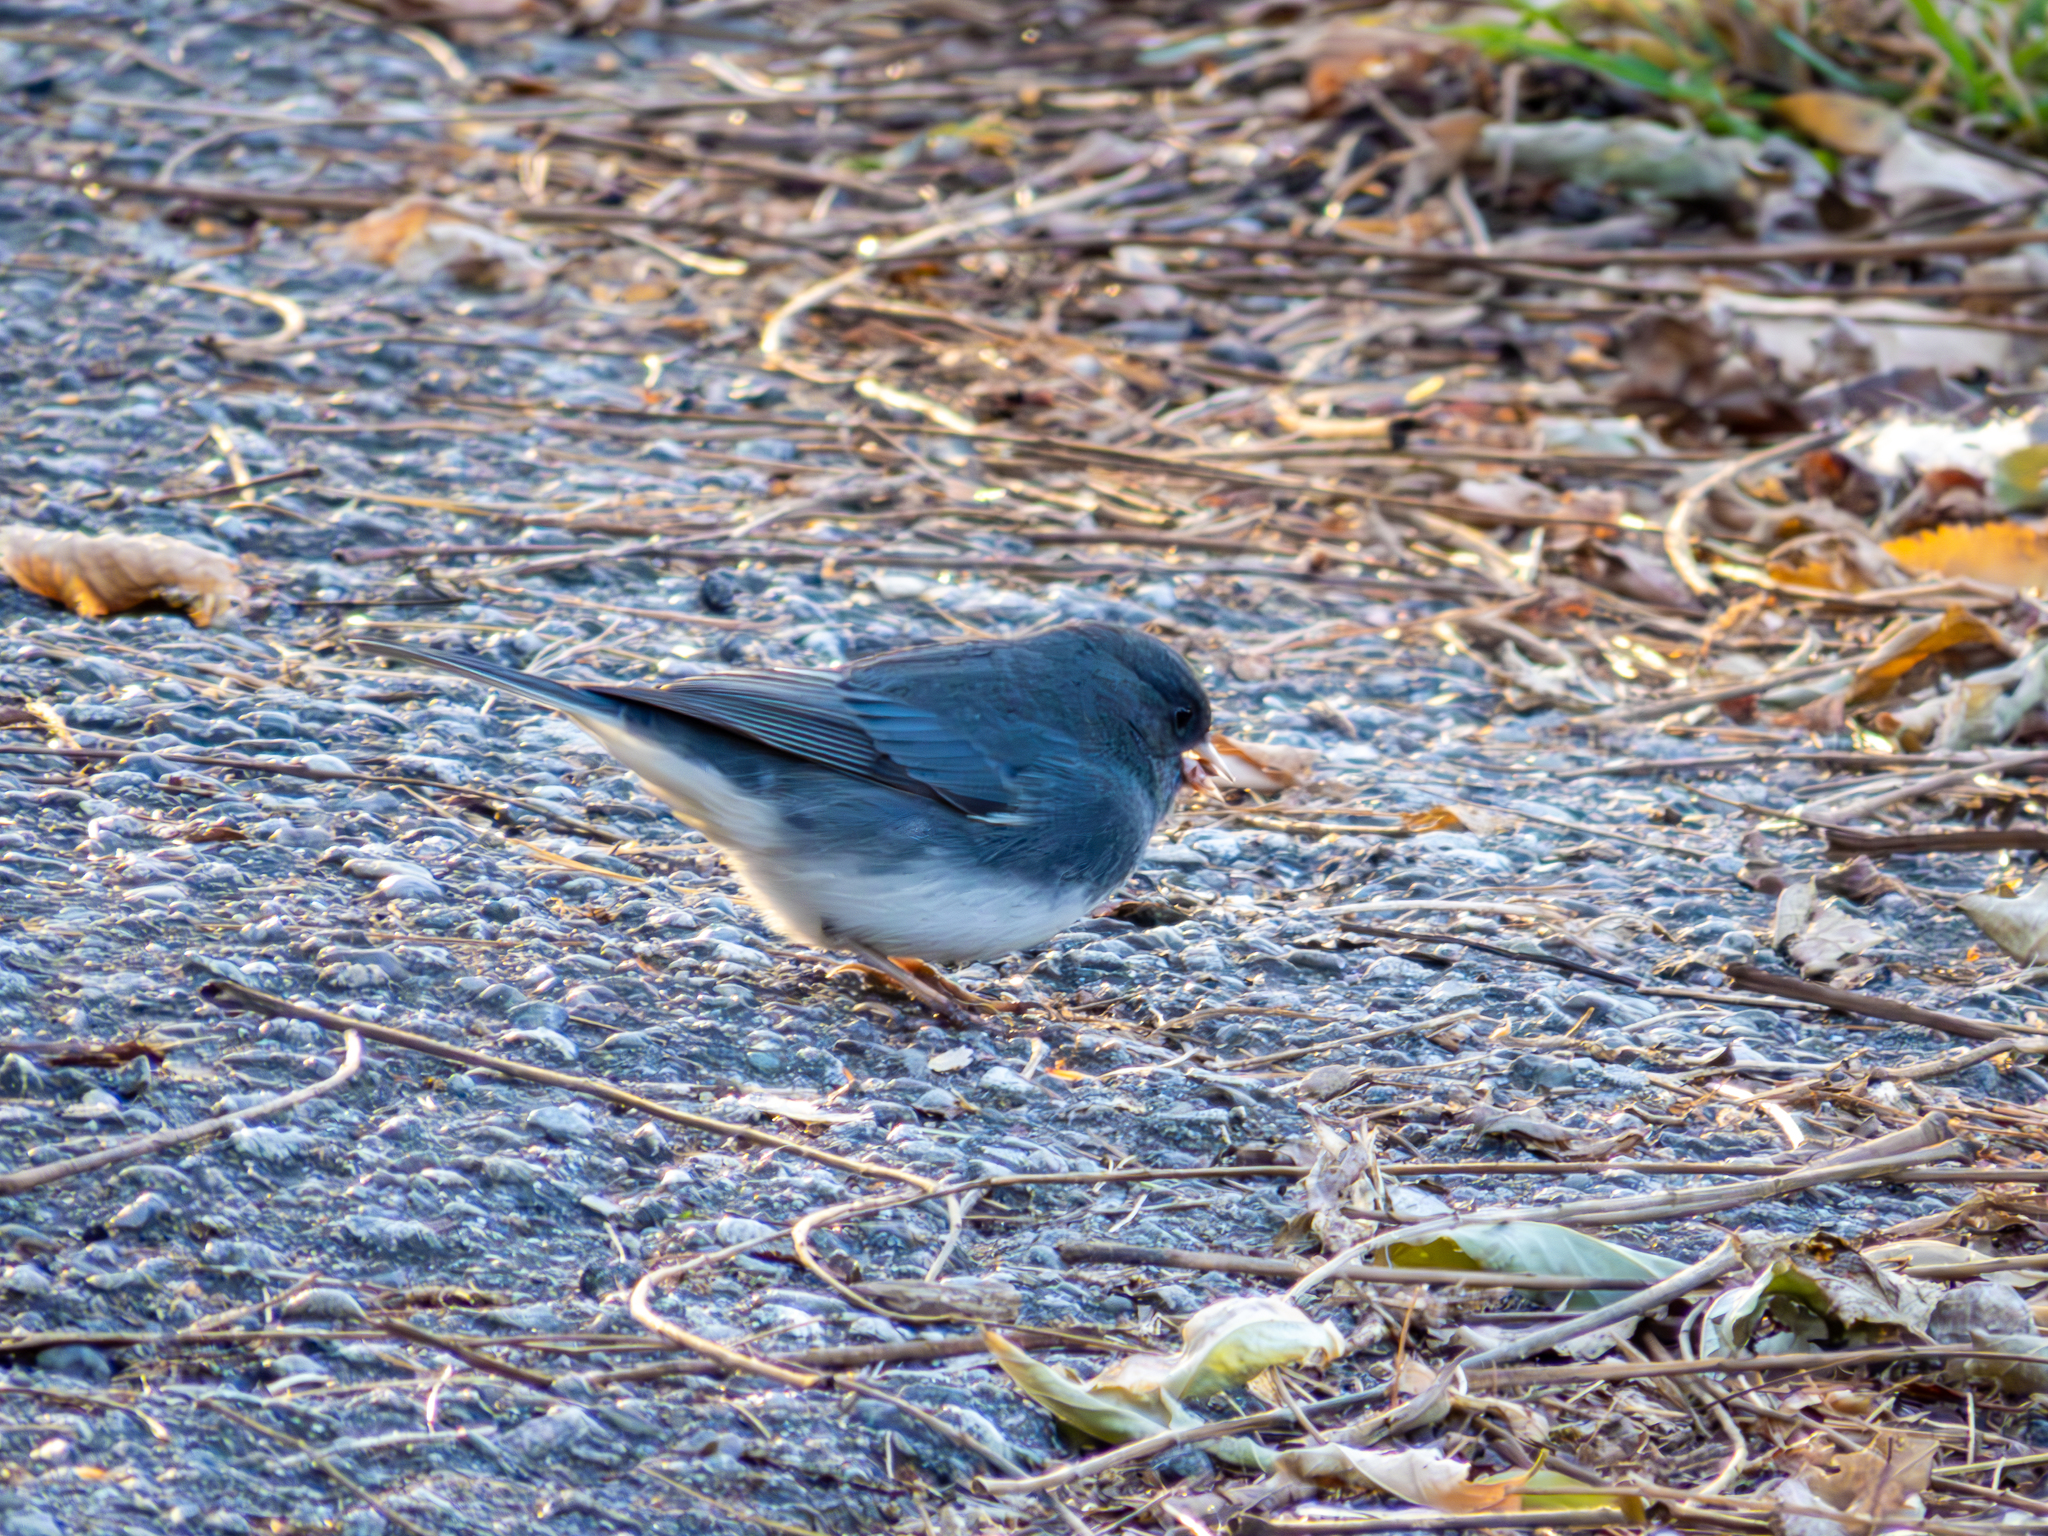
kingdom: Animalia
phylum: Chordata
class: Aves
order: Passeriformes
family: Passerellidae
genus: Junco
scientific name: Junco hyemalis
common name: Dark-eyed junco
